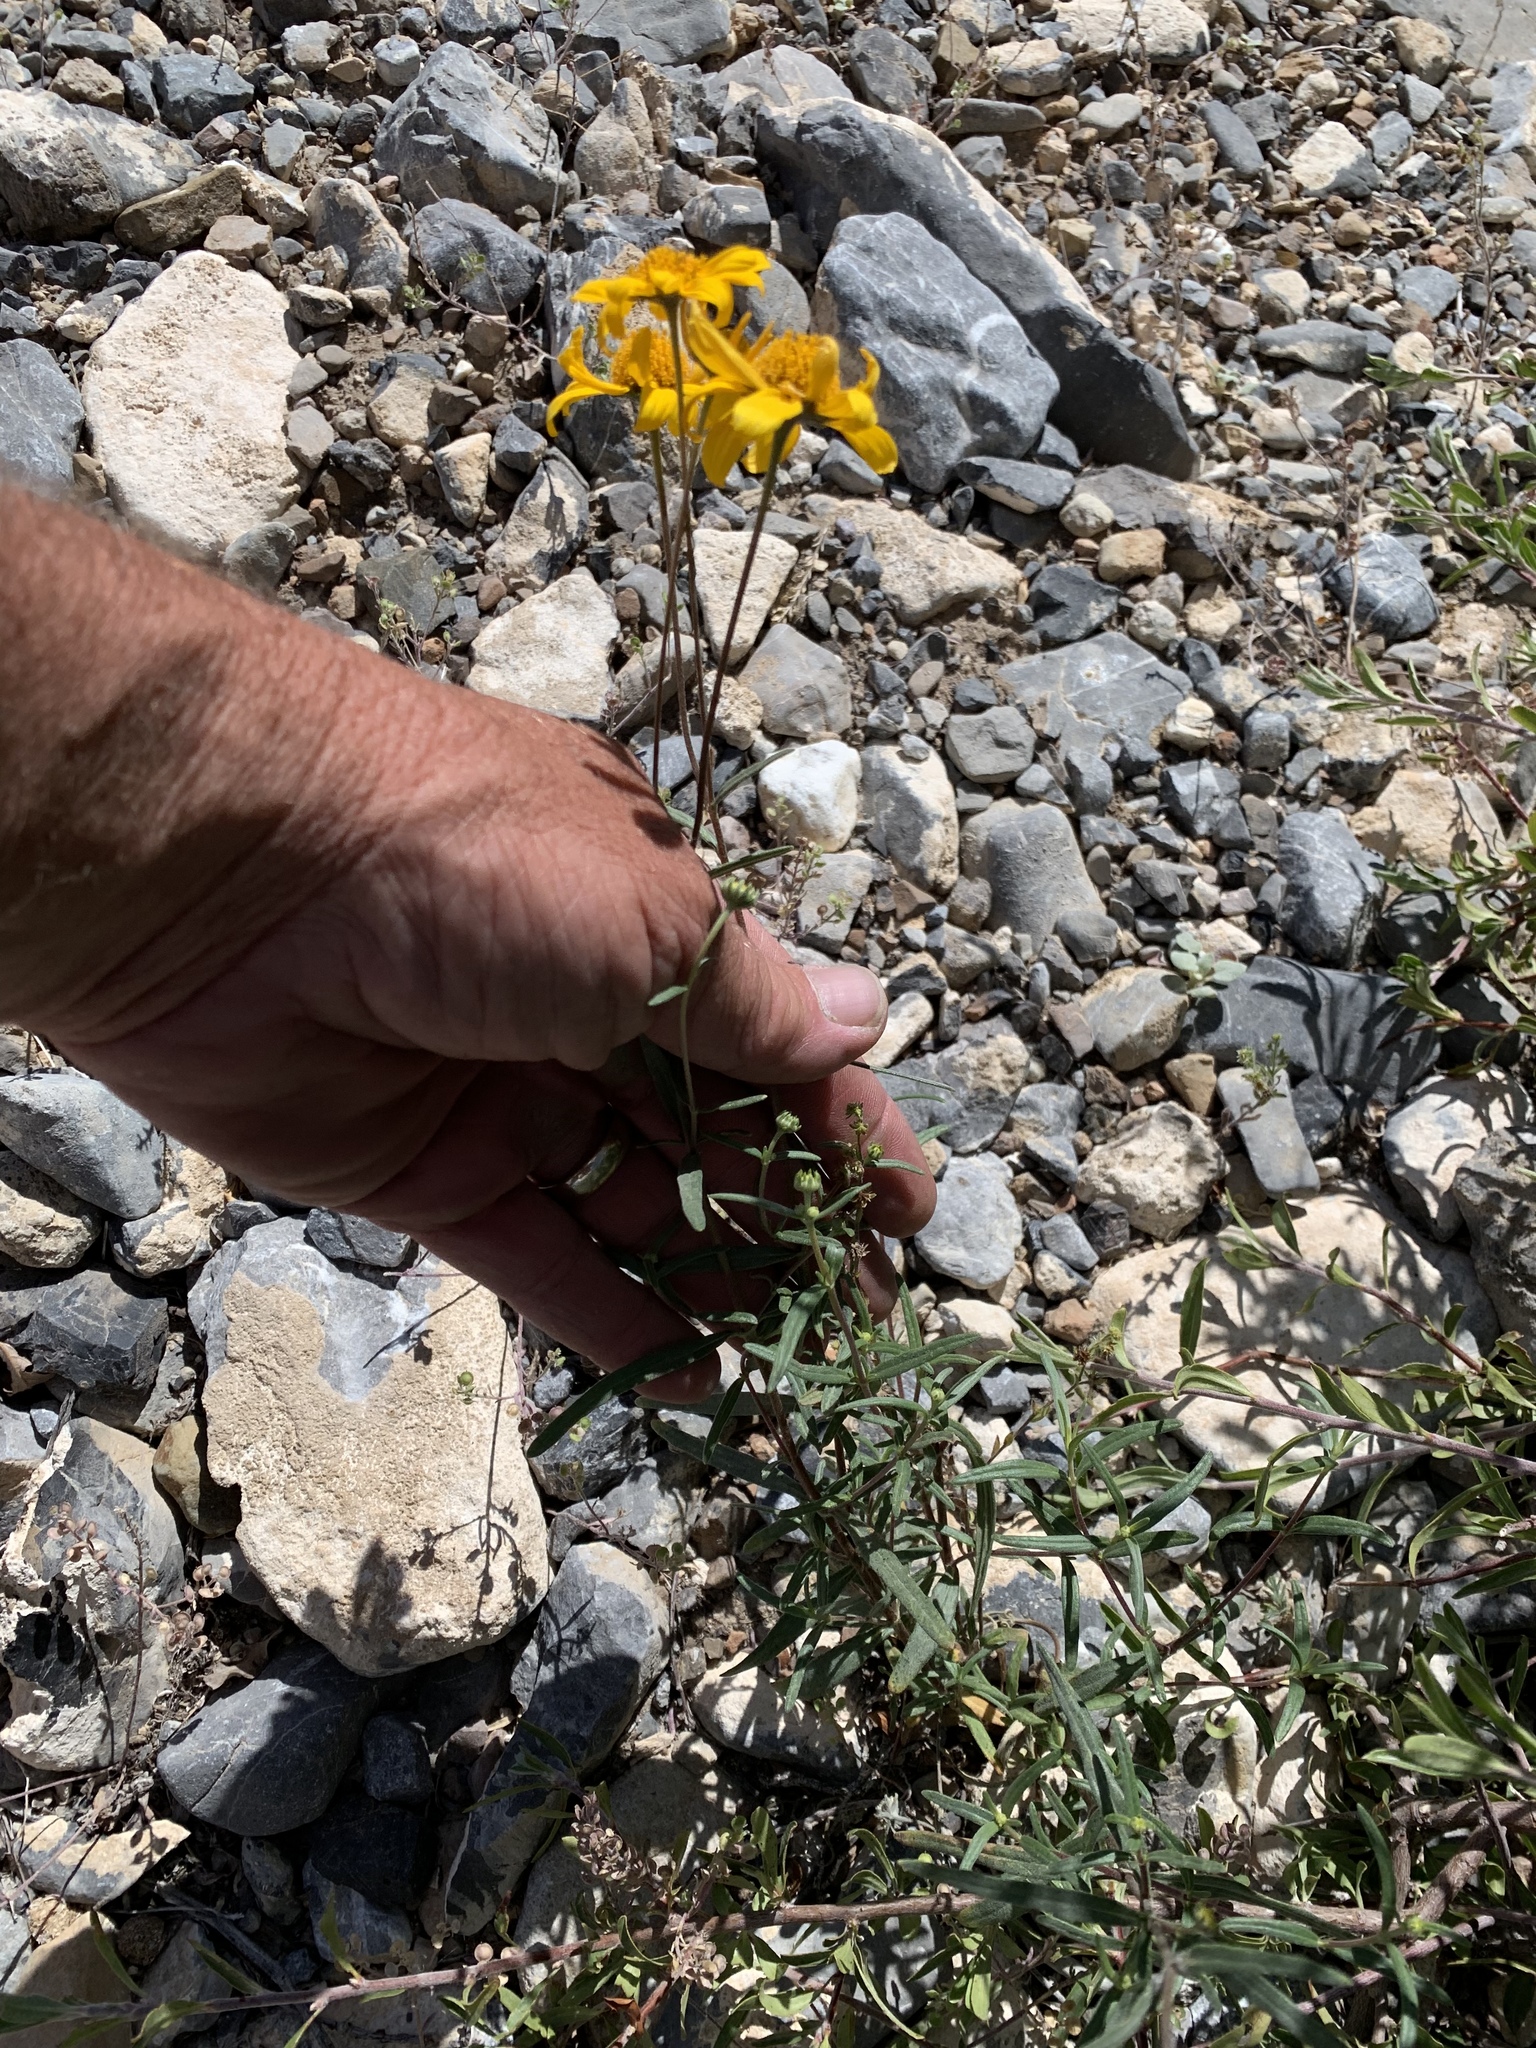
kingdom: Plantae
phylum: Tracheophyta
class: Magnoliopsida
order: Asterales
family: Asteraceae
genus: Heliomeris
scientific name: Heliomeris multiflora
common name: Showy goldeneye
